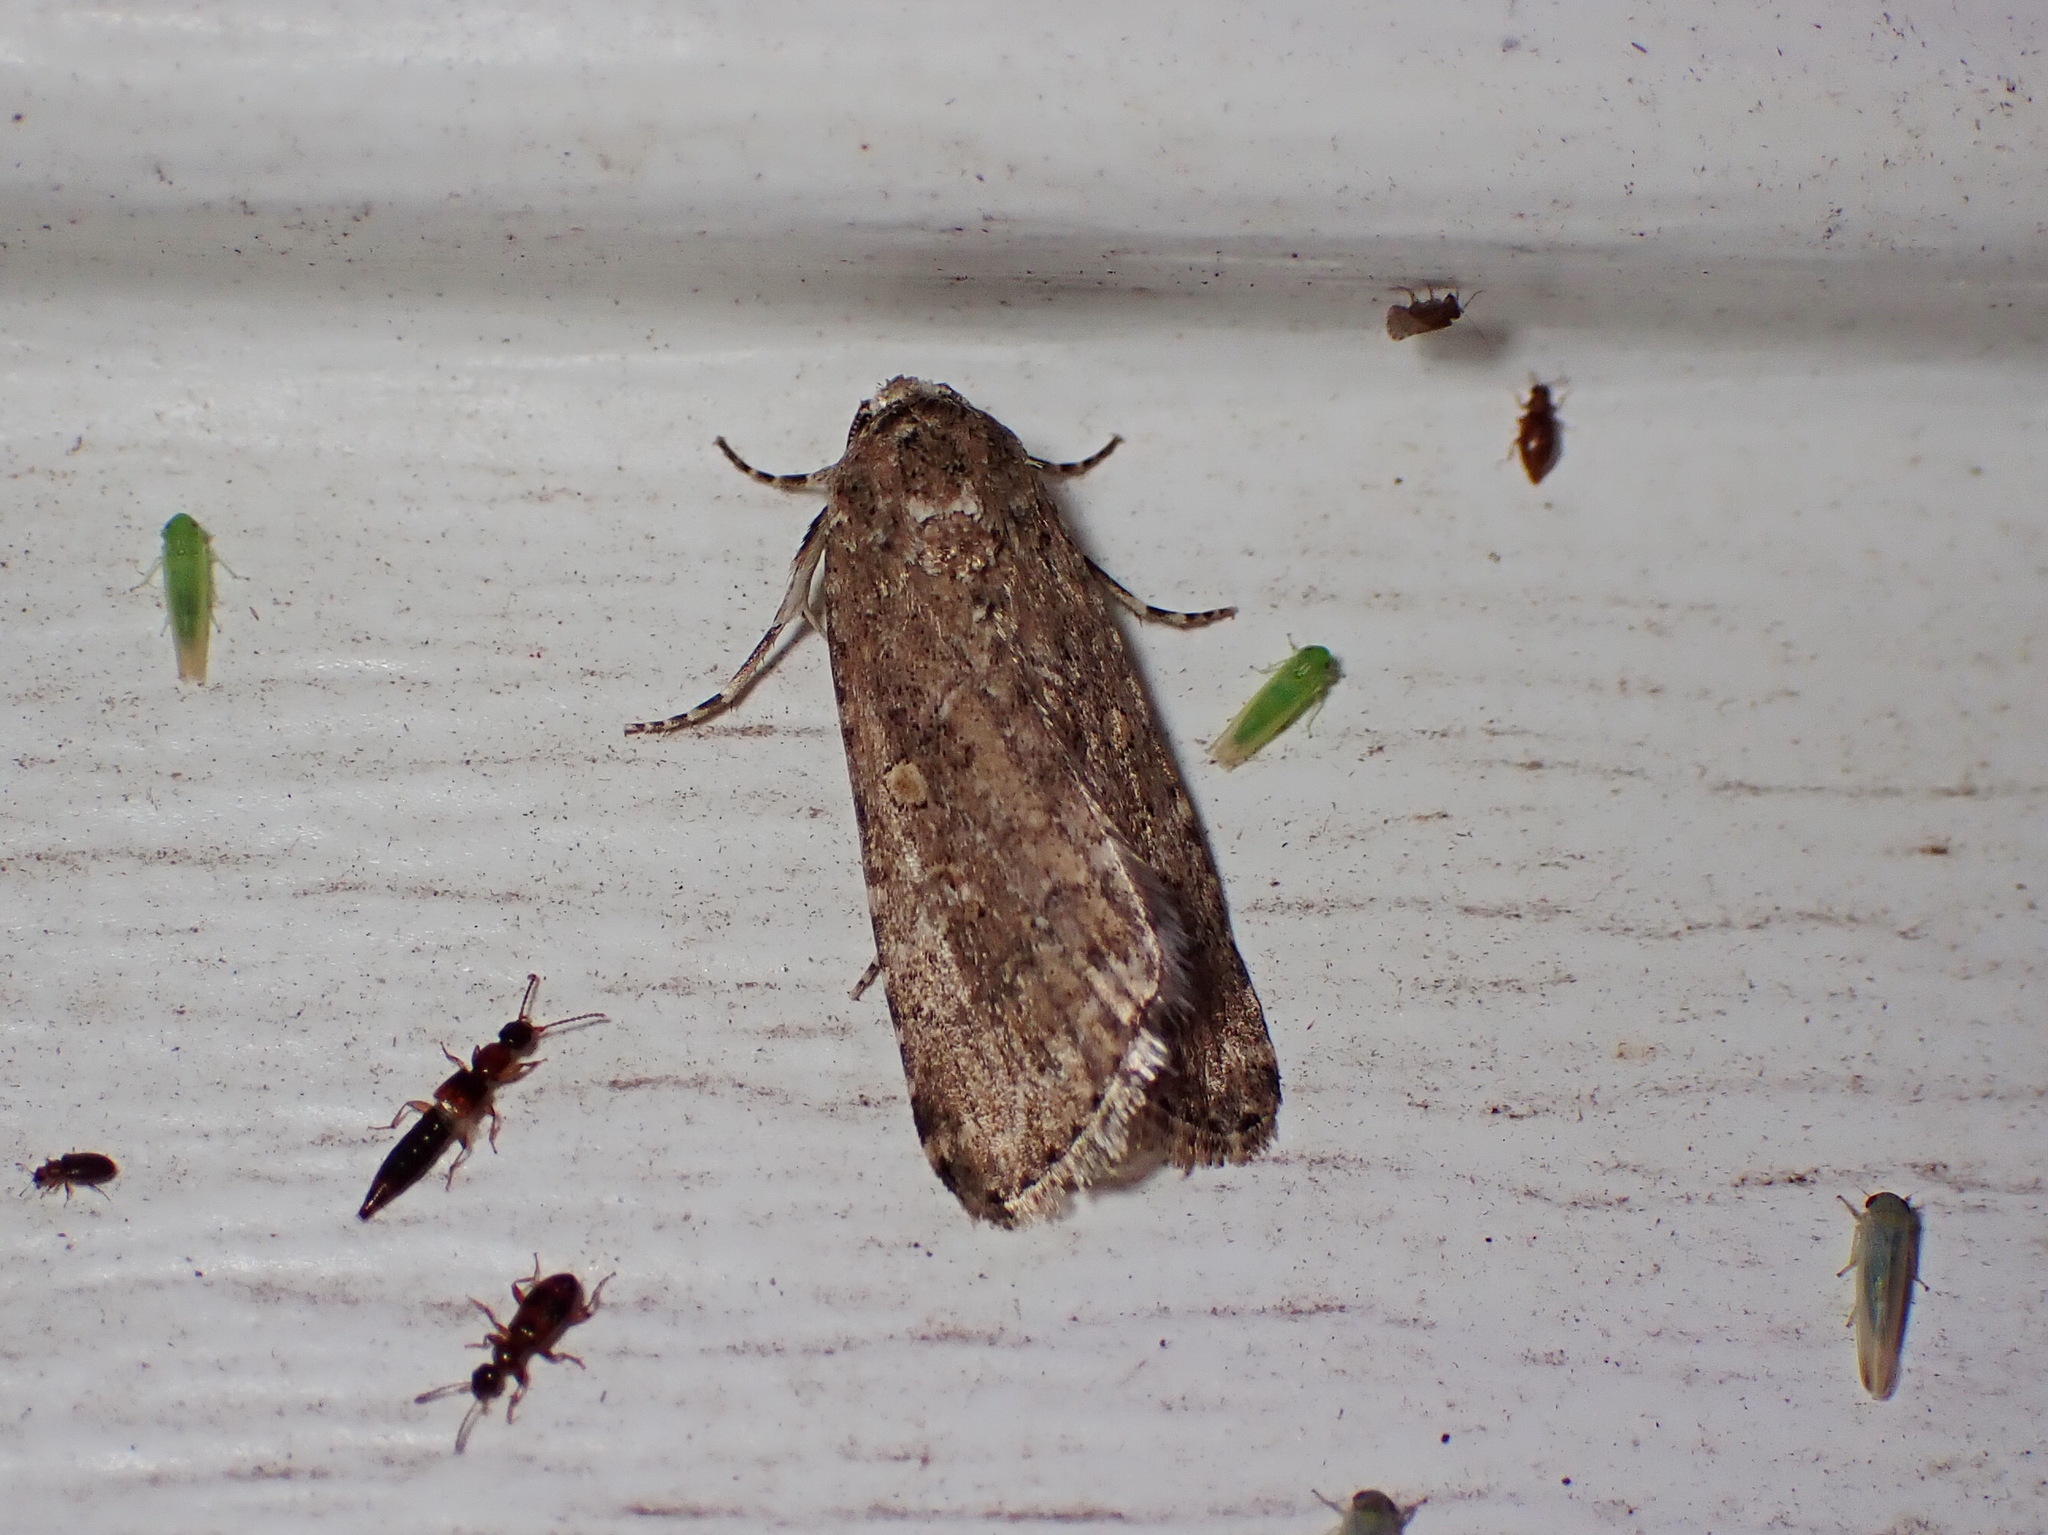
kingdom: Animalia
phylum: Arthropoda
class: Insecta
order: Lepidoptera
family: Noctuidae
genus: Spodoptera
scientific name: Spodoptera exigua
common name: Beet armyworm
